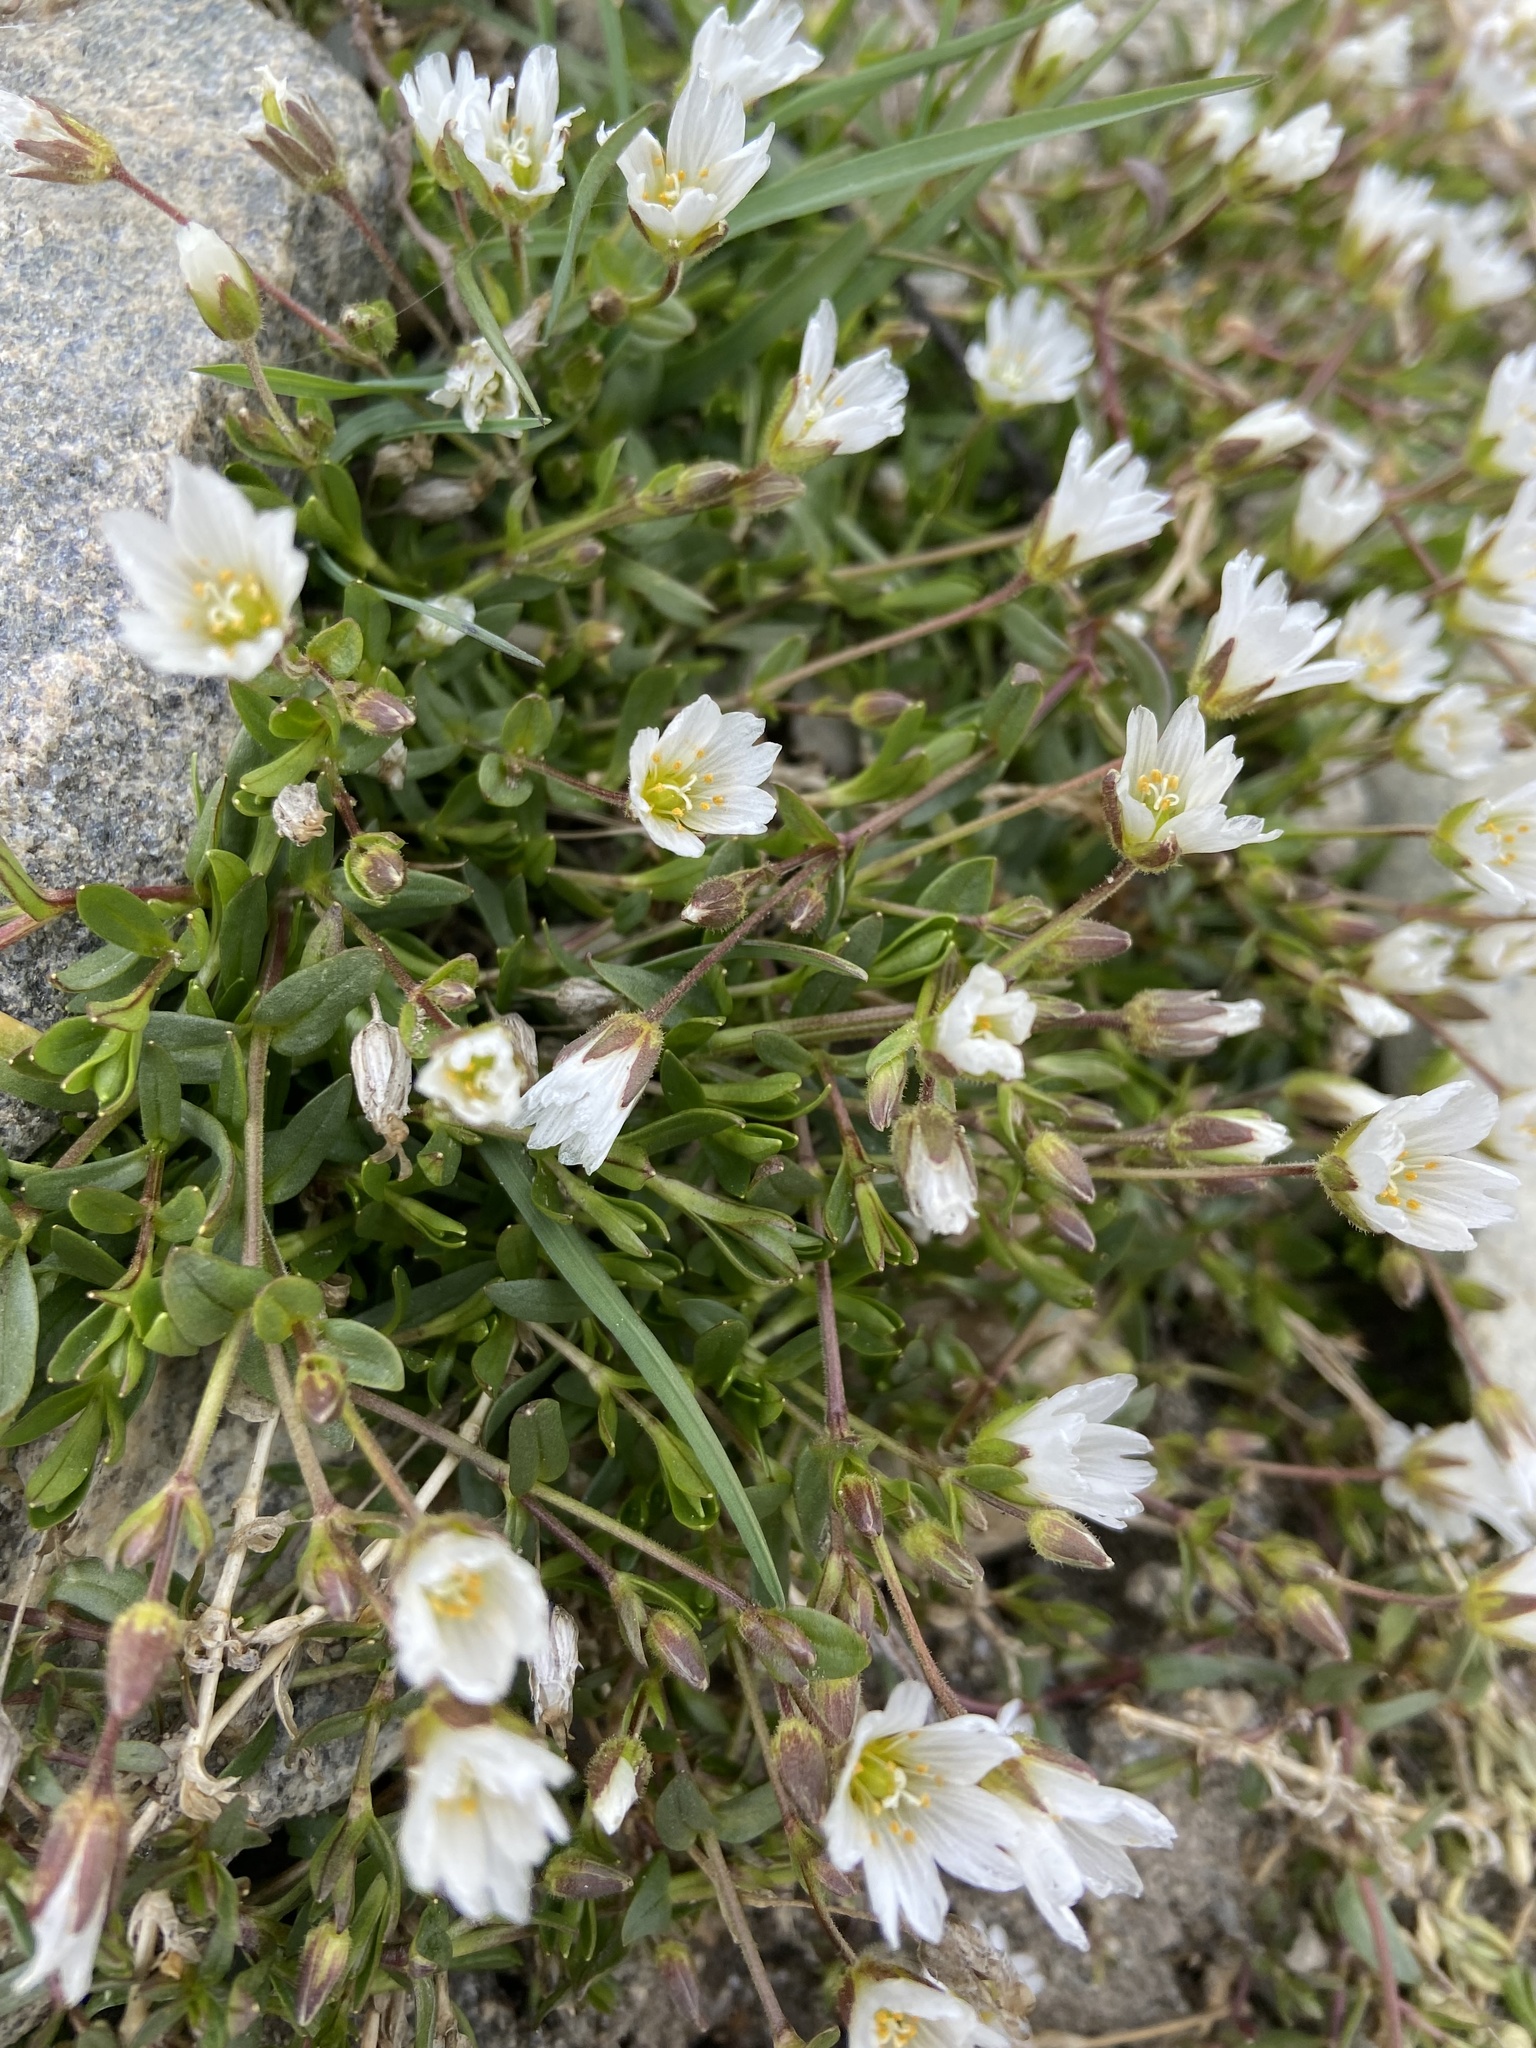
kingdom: Plantae
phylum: Tracheophyta
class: Magnoliopsida
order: Caryophyllales
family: Caryophyllaceae
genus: Dichodon
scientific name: Dichodon cerastoides
